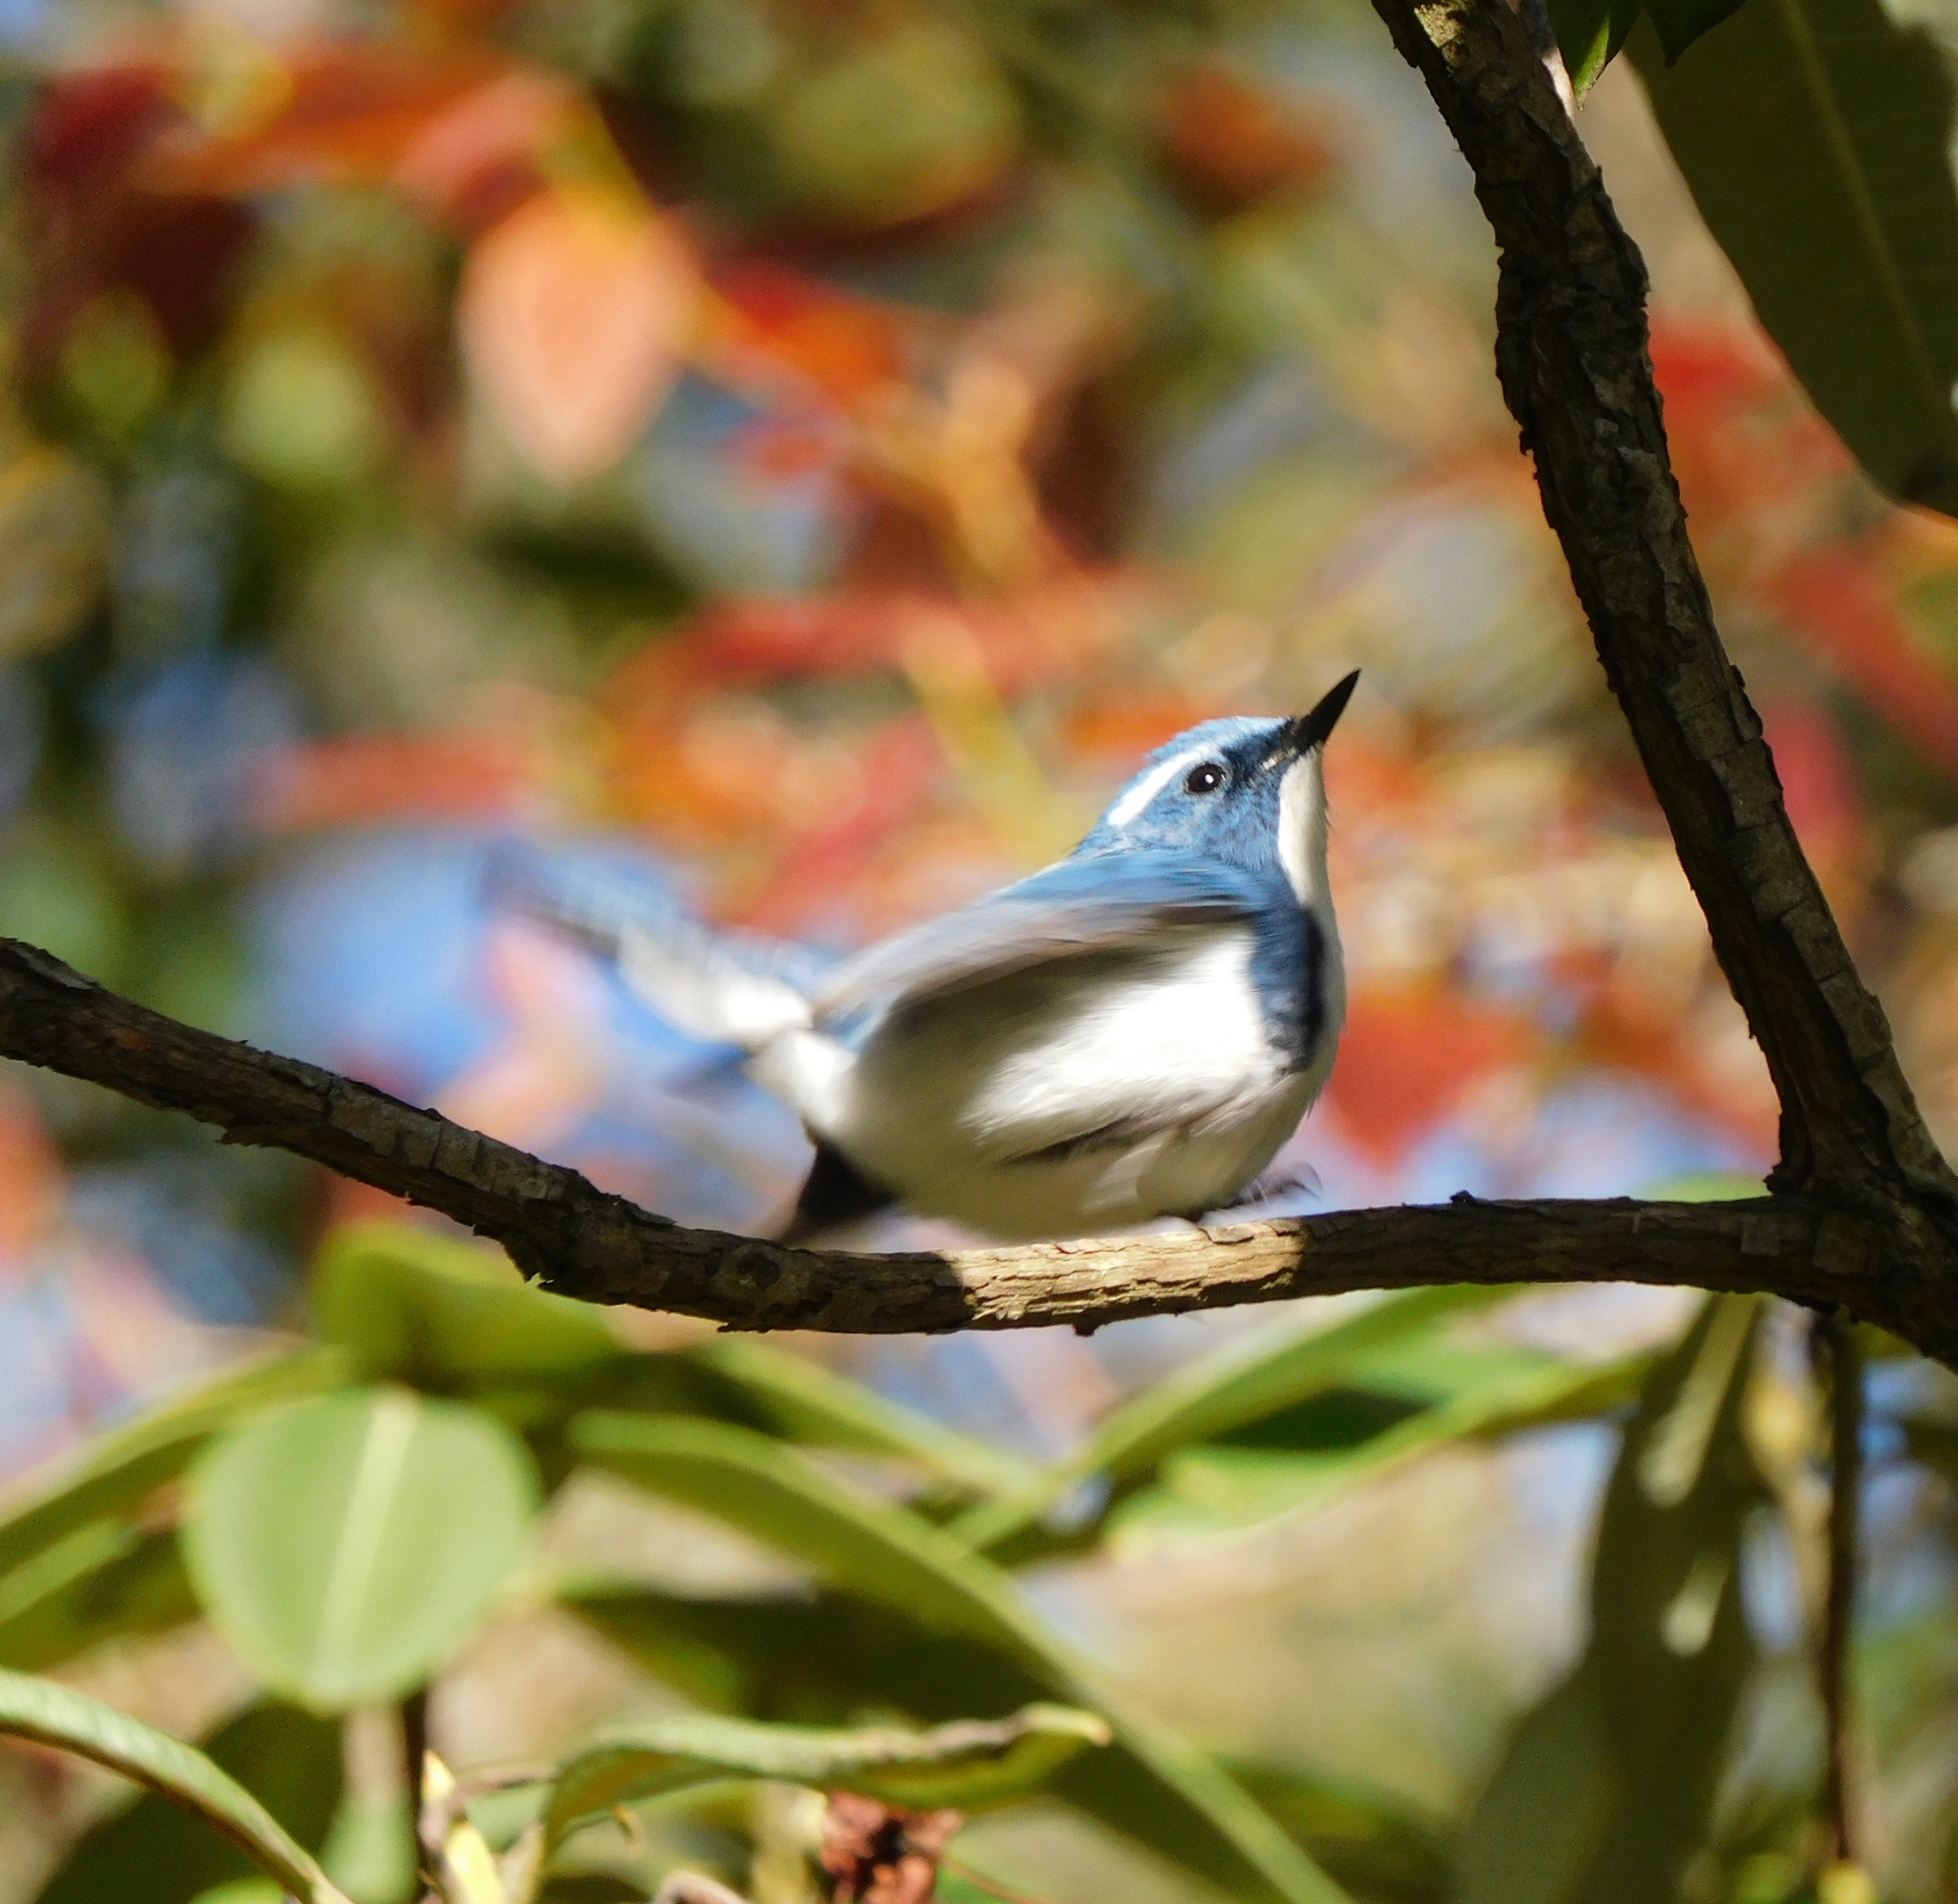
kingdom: Animalia
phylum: Chordata
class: Aves
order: Passeriformes
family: Muscicapidae
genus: Ficedula
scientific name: Ficedula superciliaris
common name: Ultramarine flycatcher
